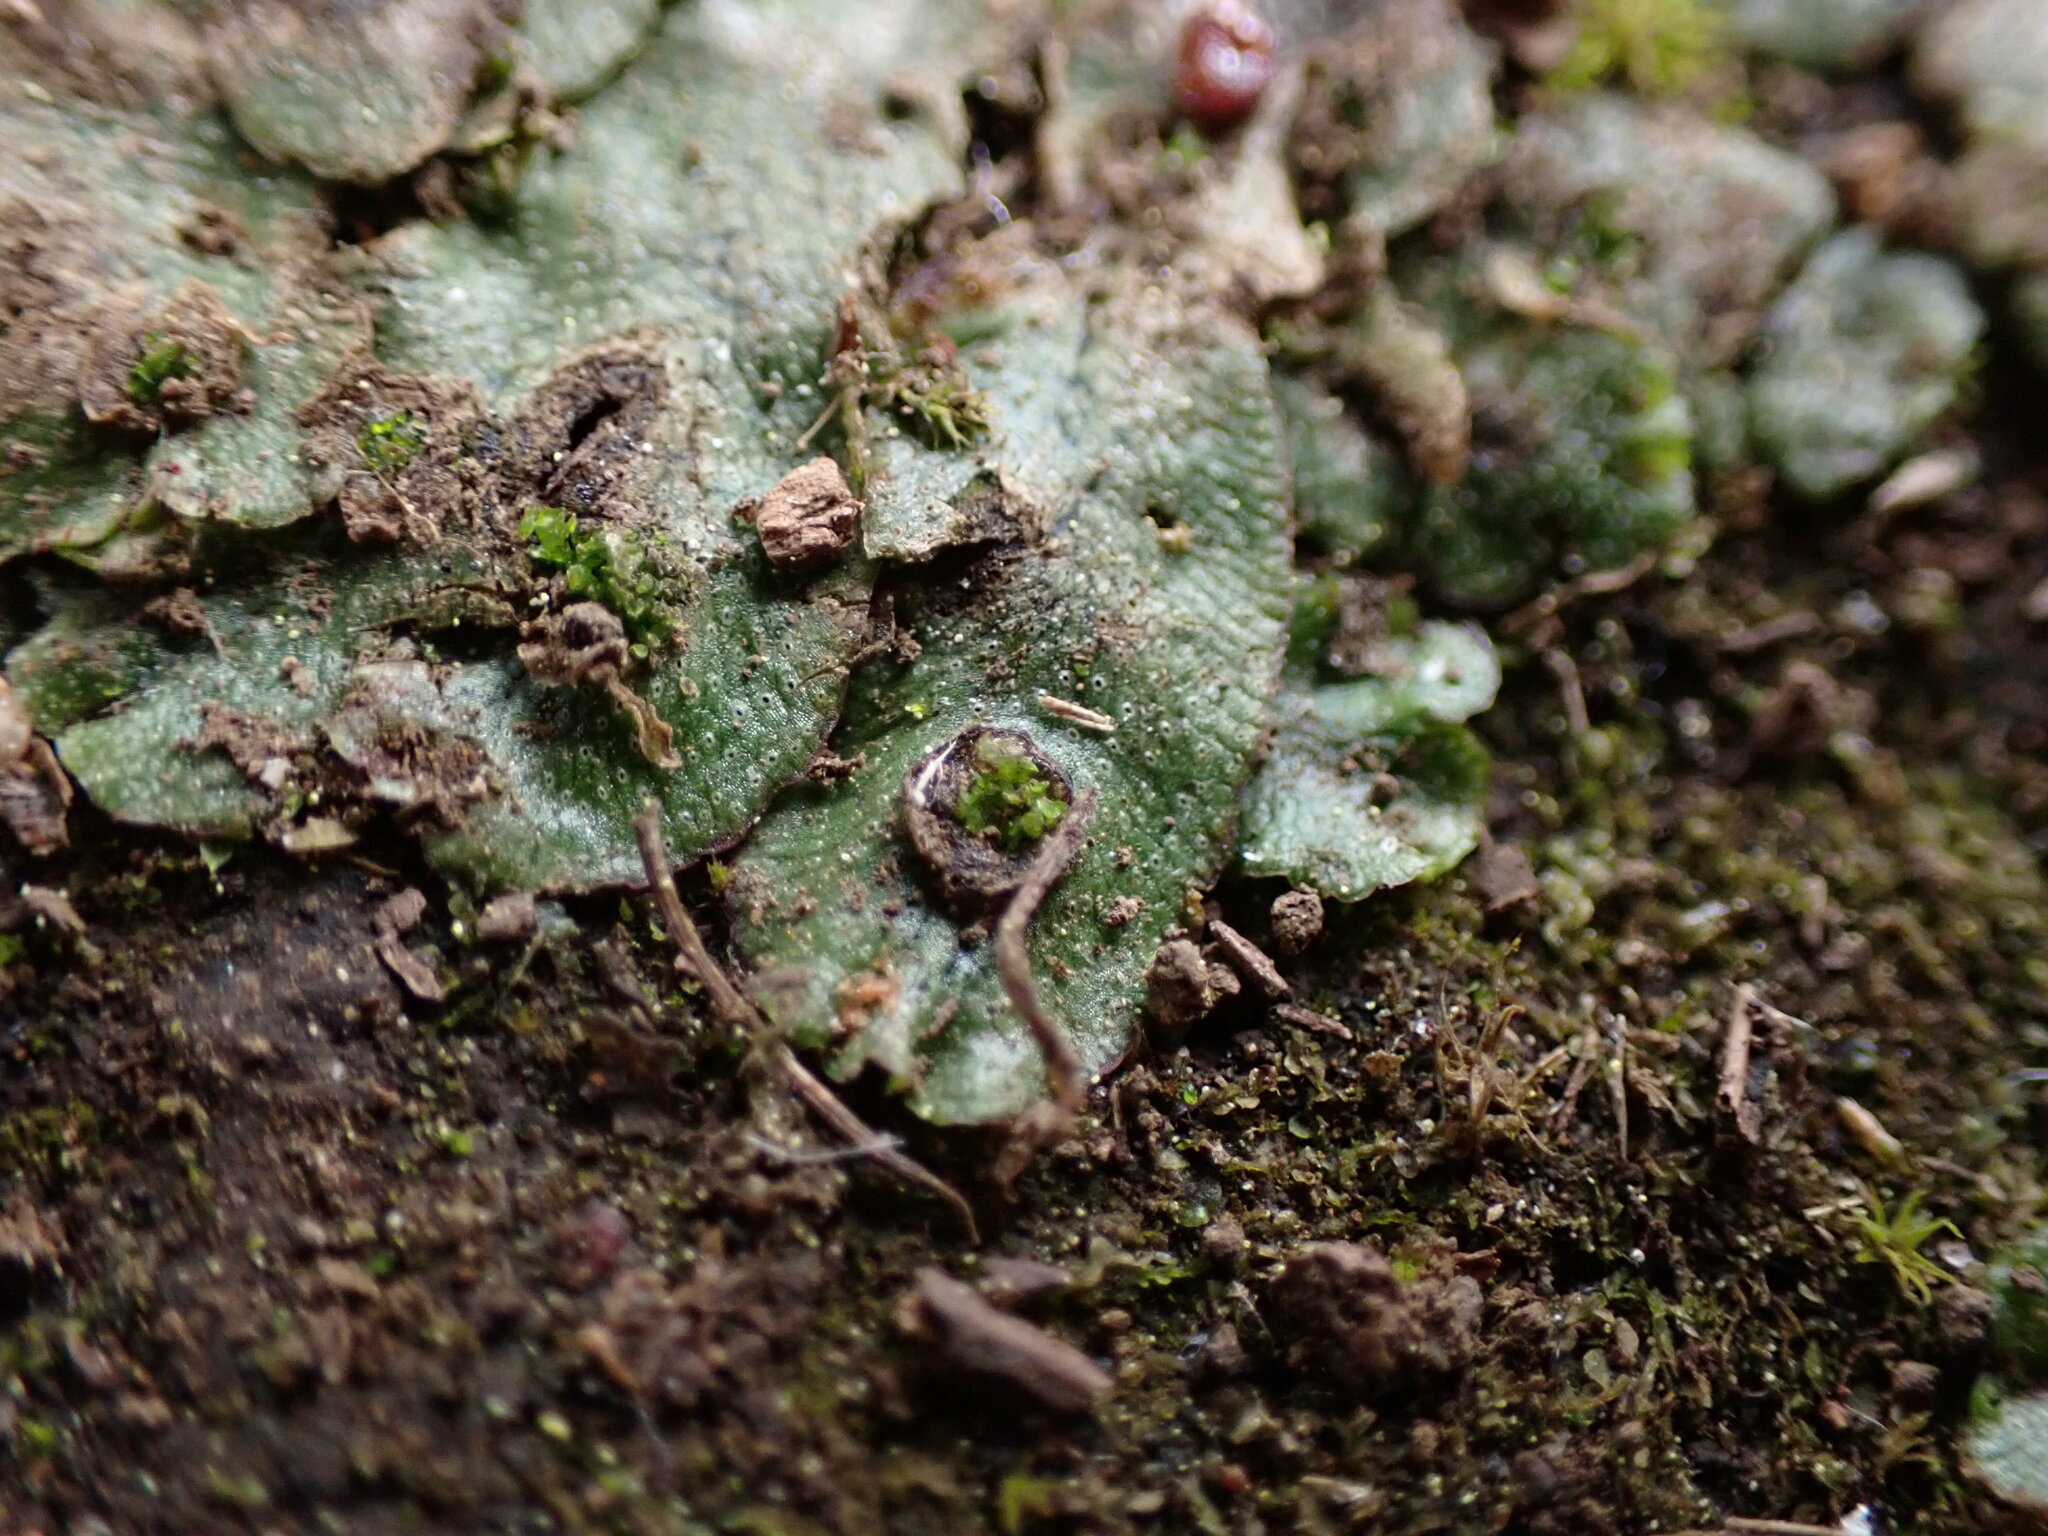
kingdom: Plantae
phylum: Marchantiophyta
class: Marchantiopsida
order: Marchantiales
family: Marchantiaceae
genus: Marchantia
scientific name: Marchantia polymorpha
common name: Common liverwort
